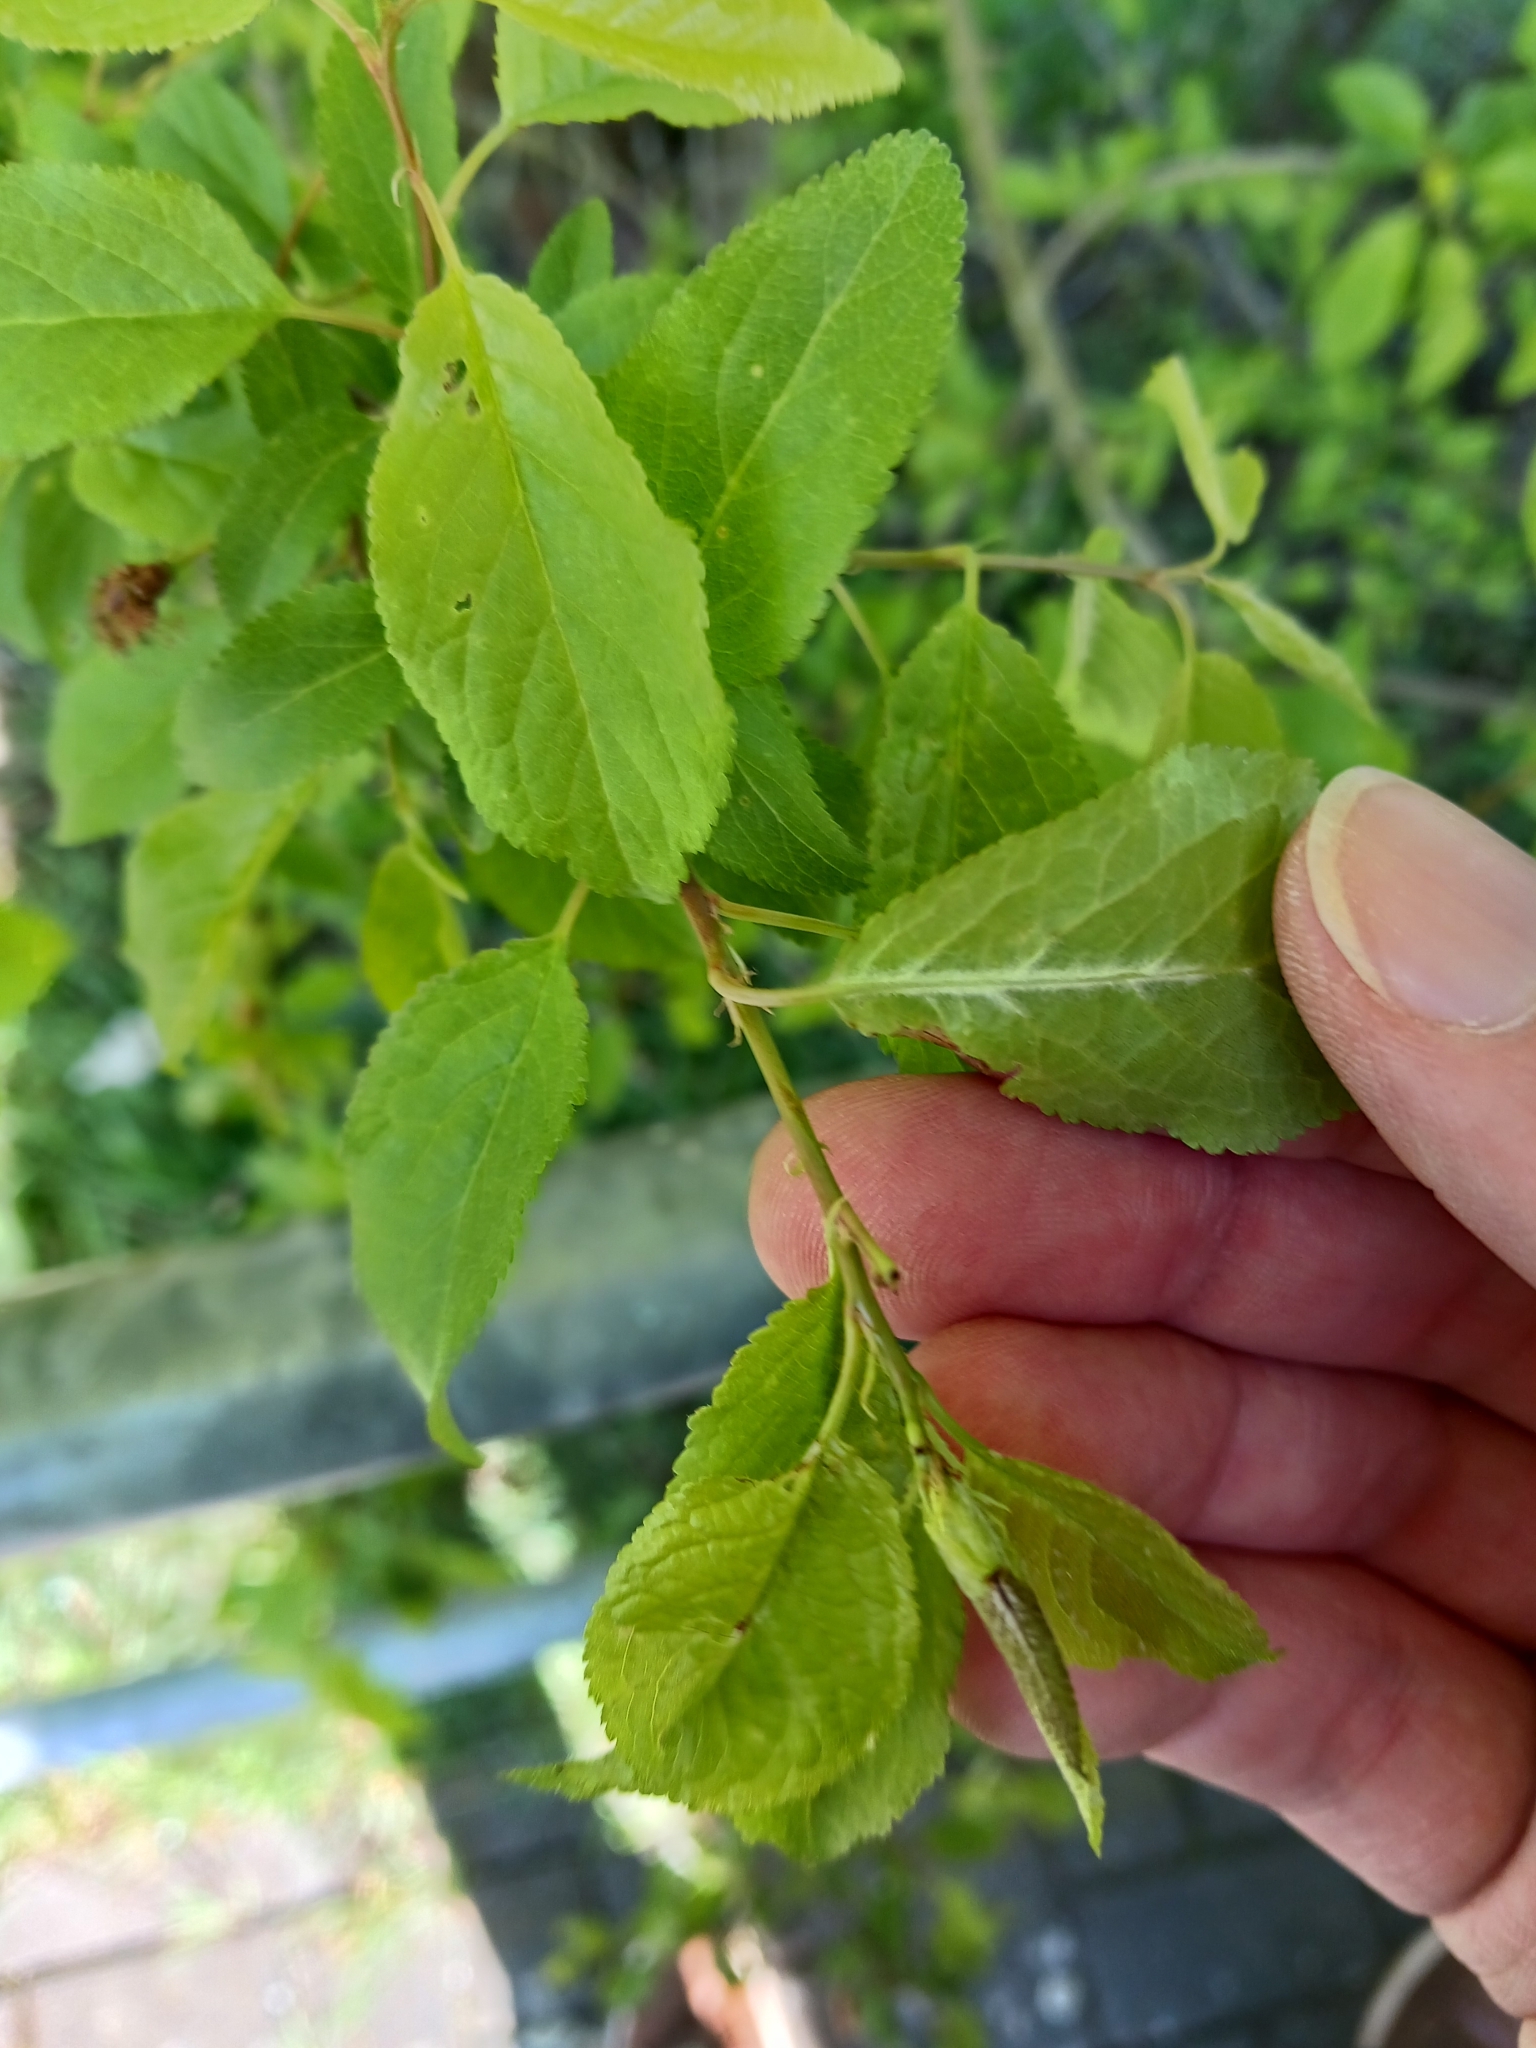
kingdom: Fungi
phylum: Ascomycota
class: Taphrinomycetes
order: Taphrinales
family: Taphrinaceae
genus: Taphrina
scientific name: Taphrina pruni
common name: Pocket plum
